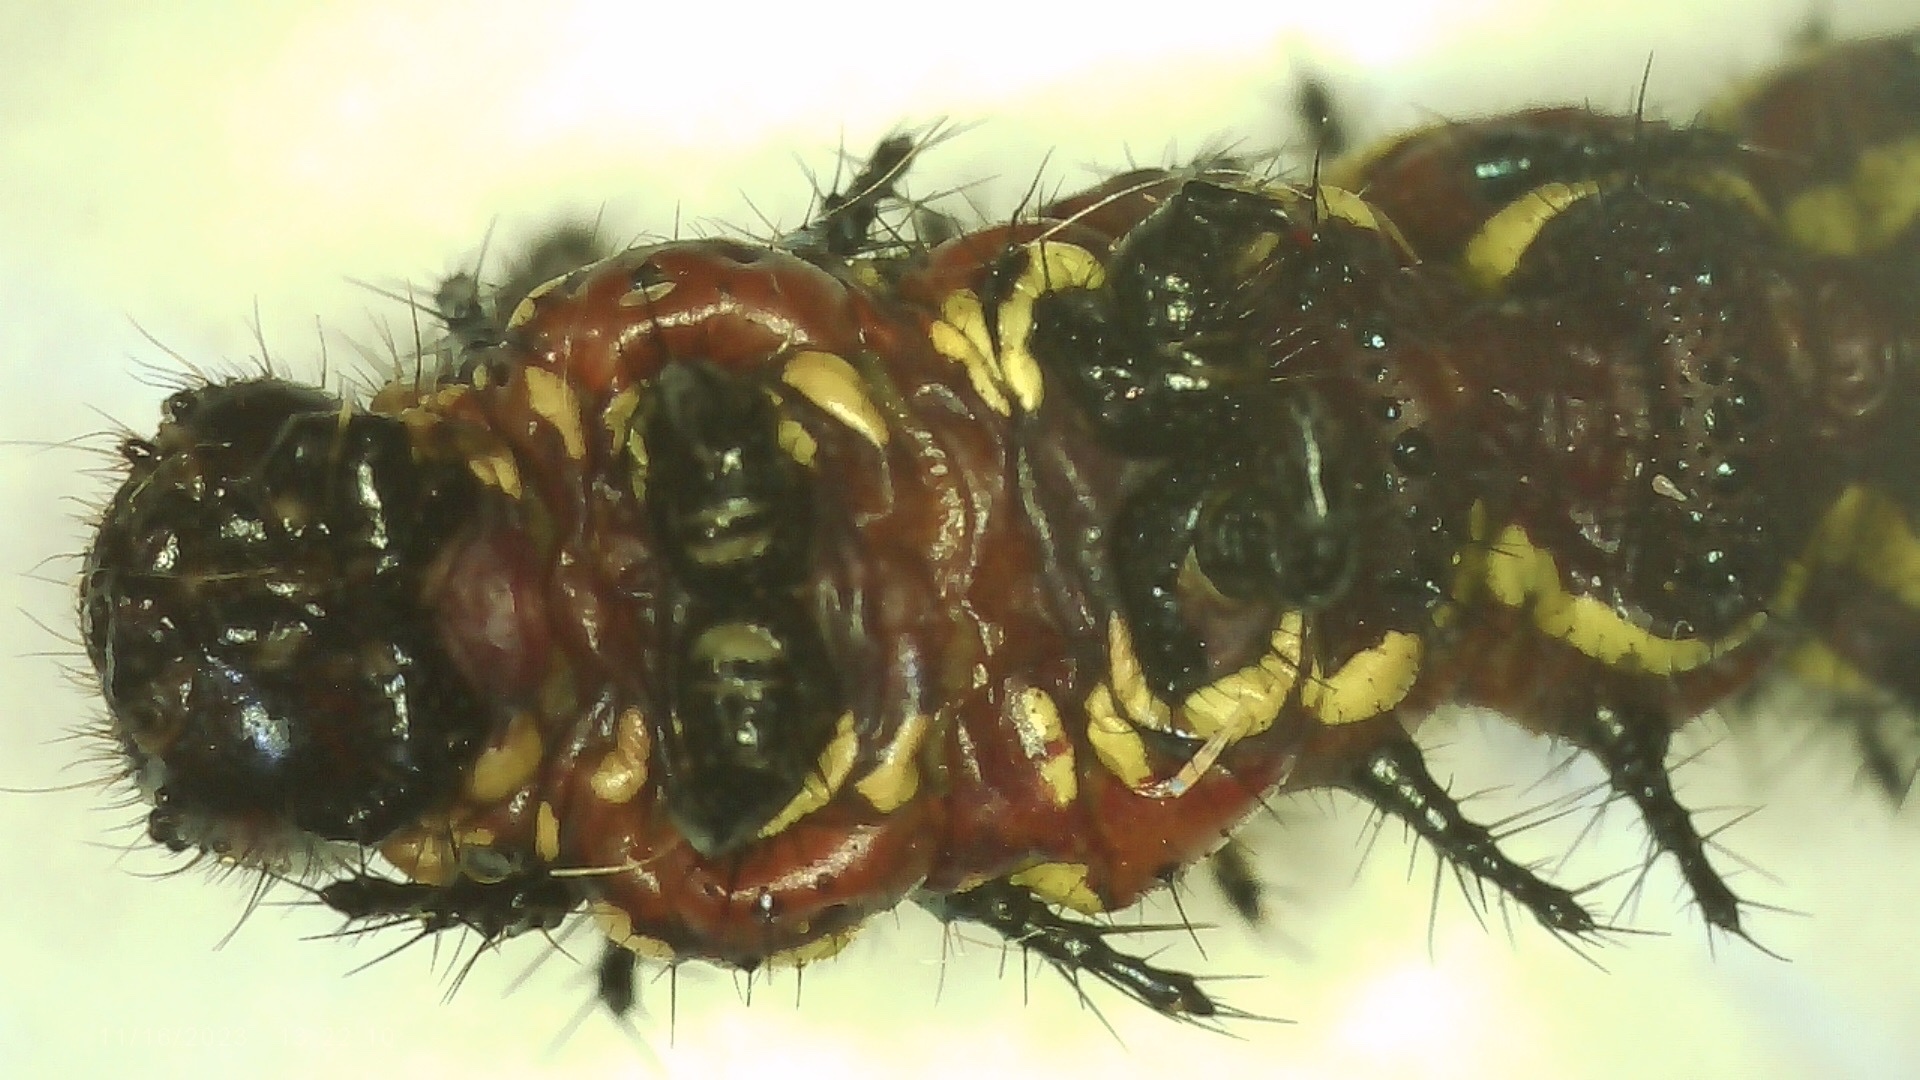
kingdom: Animalia
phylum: Arthropoda
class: Insecta
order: Lepidoptera
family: Nymphalidae
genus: Euptoieta
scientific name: Euptoieta claudia
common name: Variegated fritillary
